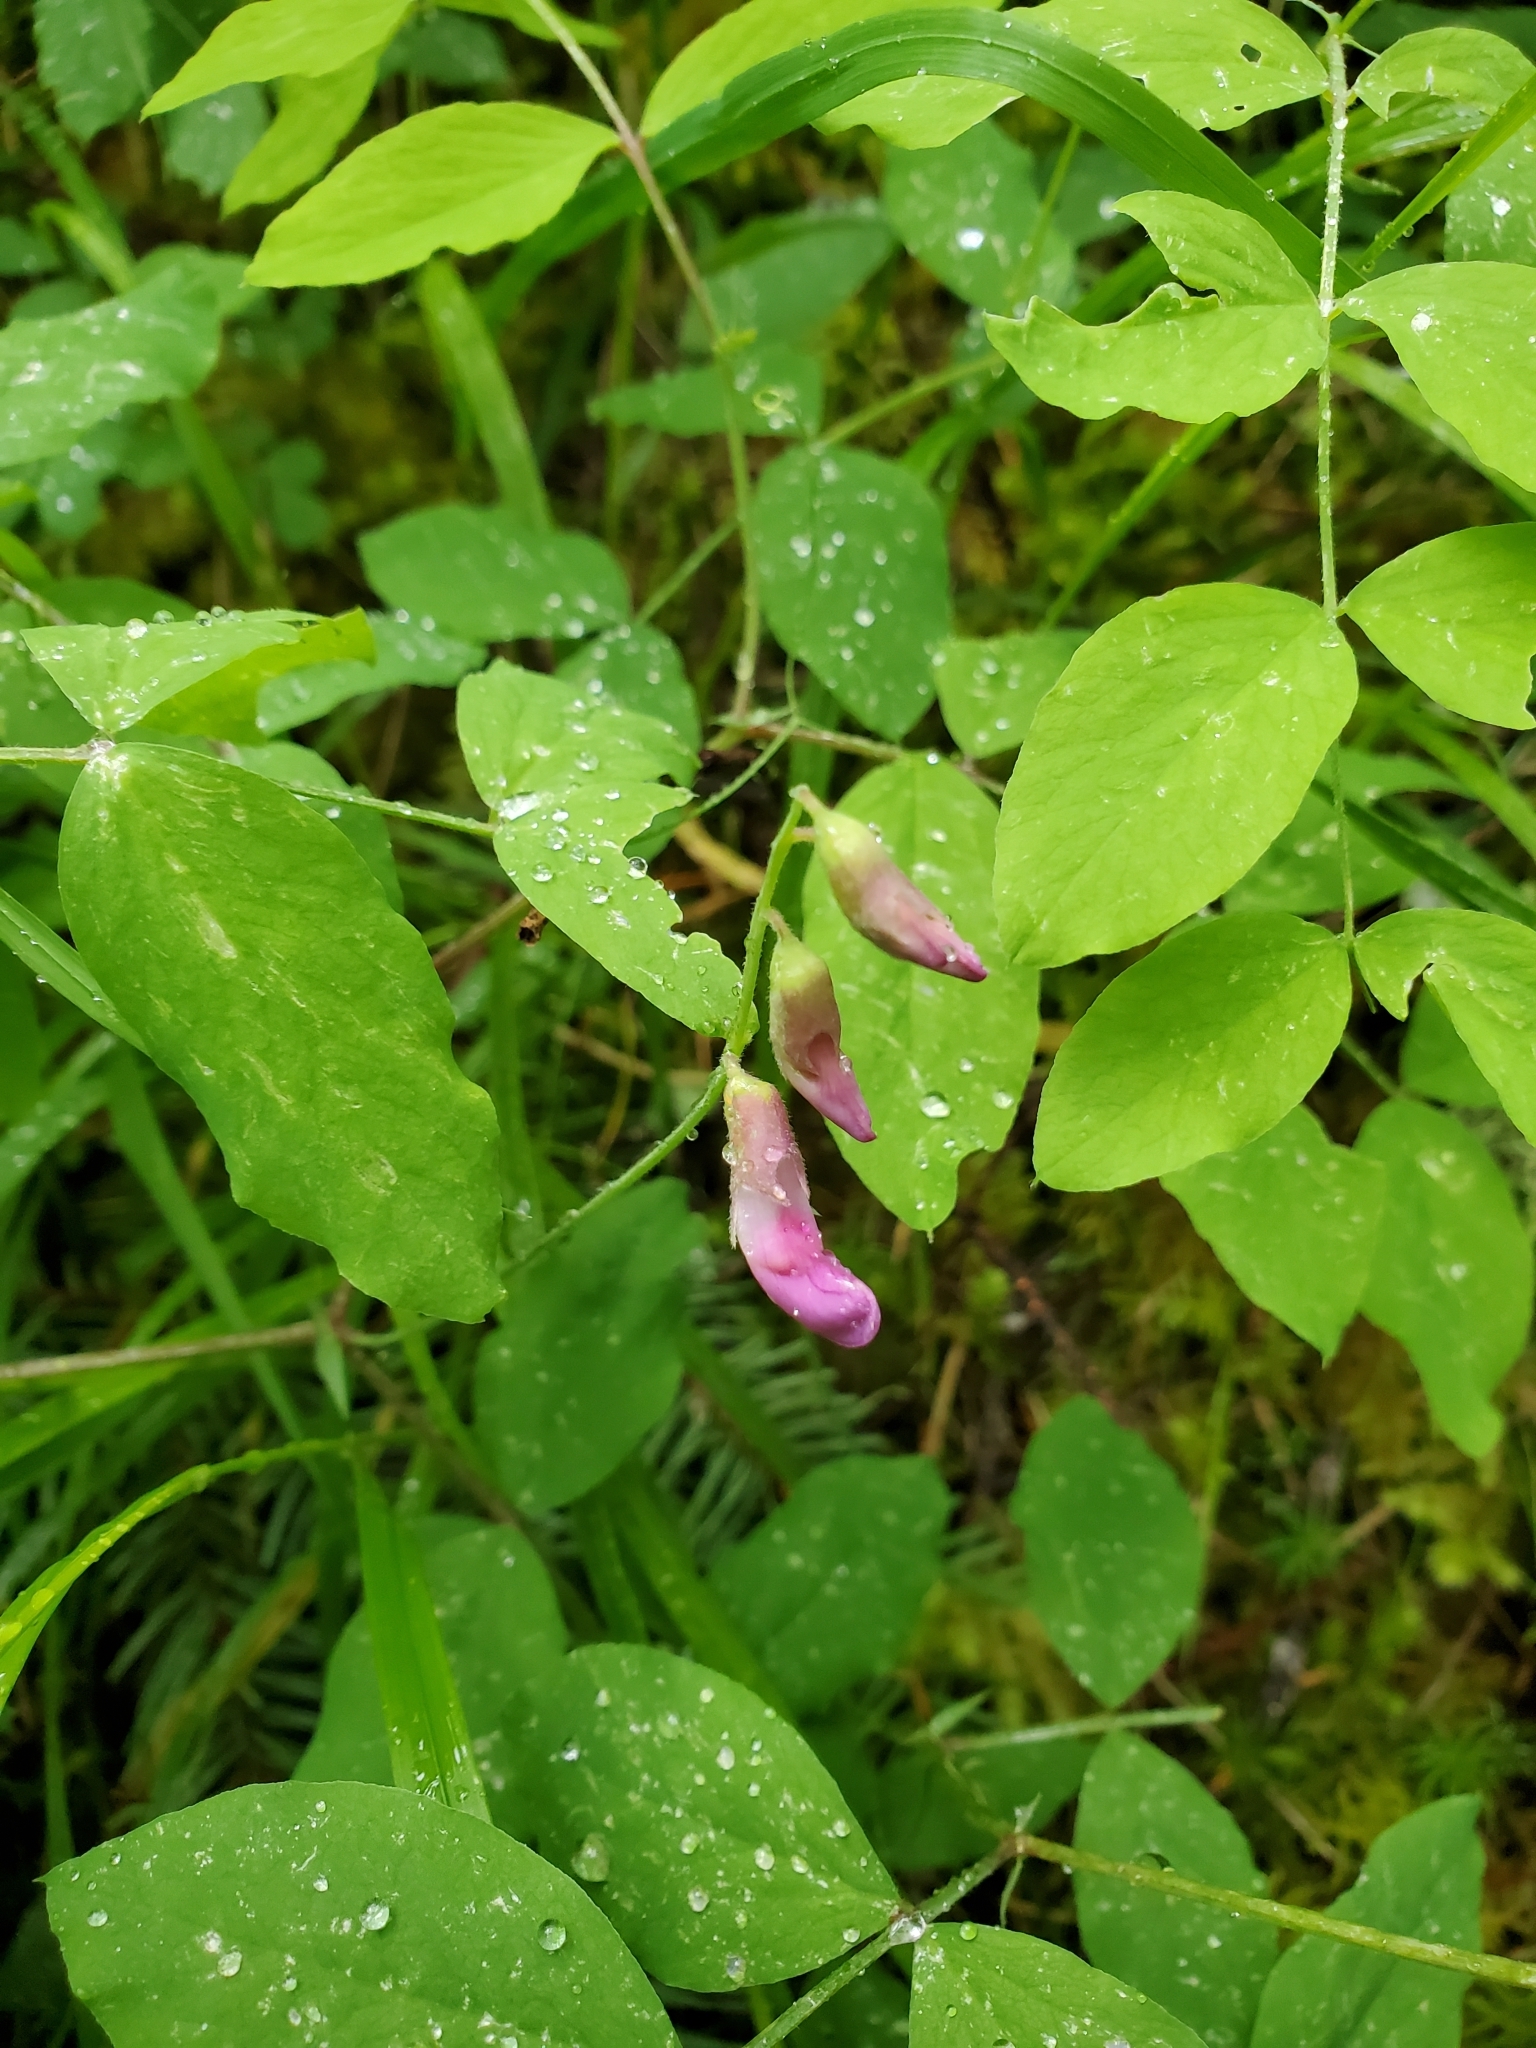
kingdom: Plantae
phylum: Tracheophyta
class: Magnoliopsida
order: Fabales
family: Fabaceae
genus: Lathyrus
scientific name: Lathyrus nevadensis
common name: Sierra nevada peavine
